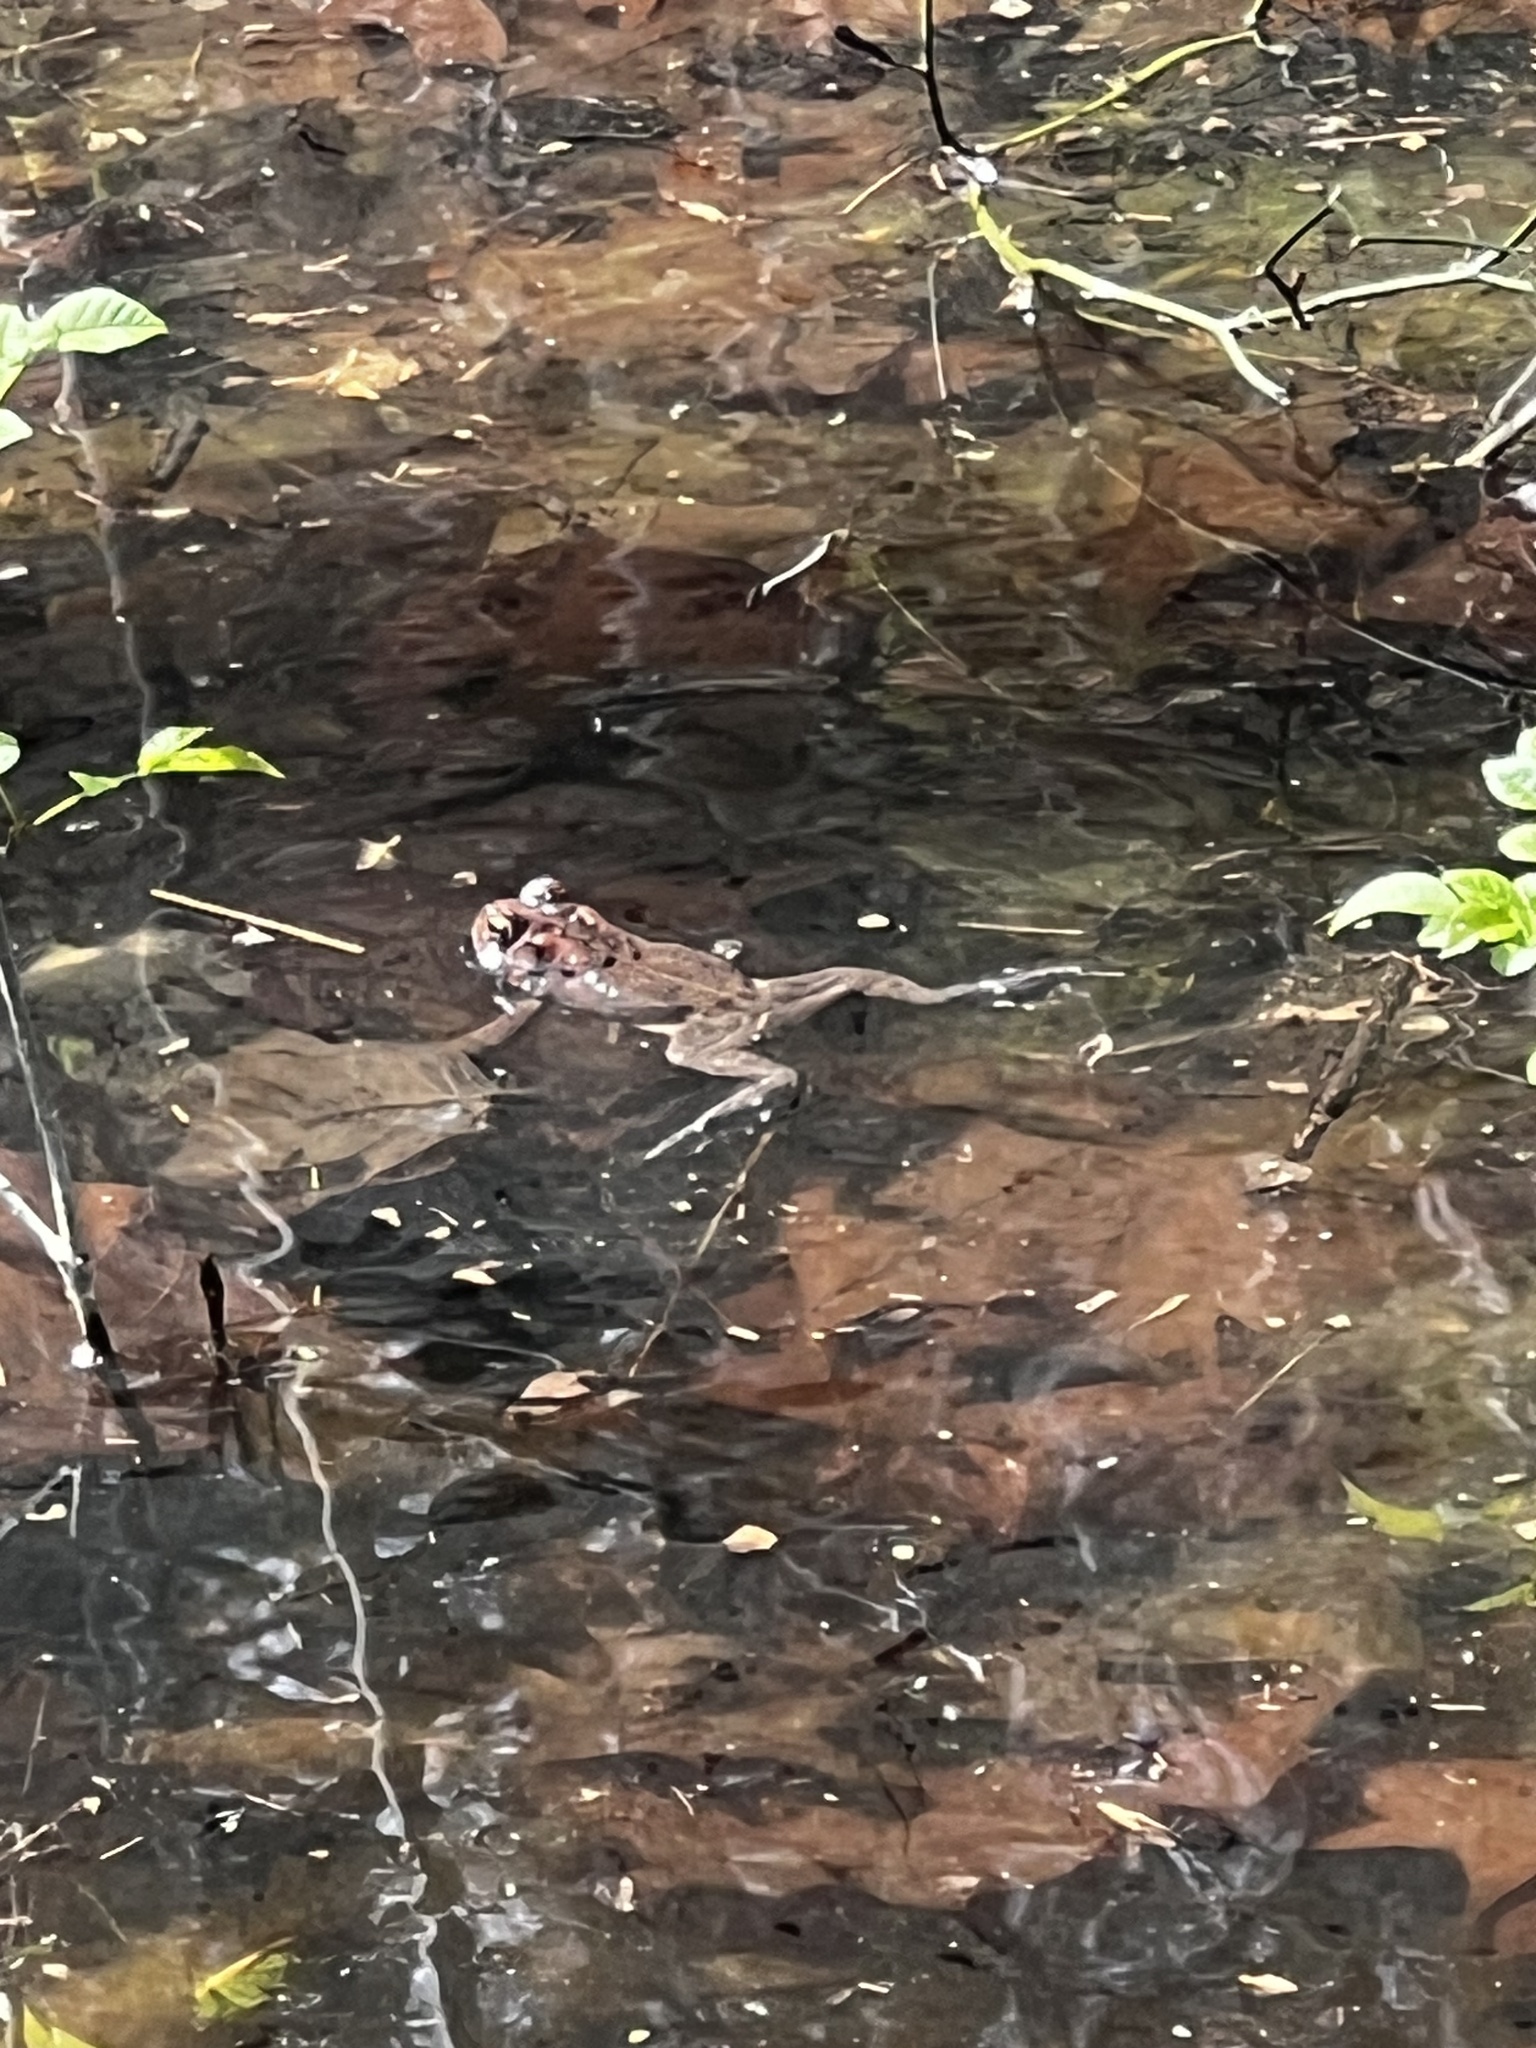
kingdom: Animalia
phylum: Chordata
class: Amphibia
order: Anura
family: Bufonidae
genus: Anaxyrus
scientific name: Anaxyrus americanus
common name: American toad
